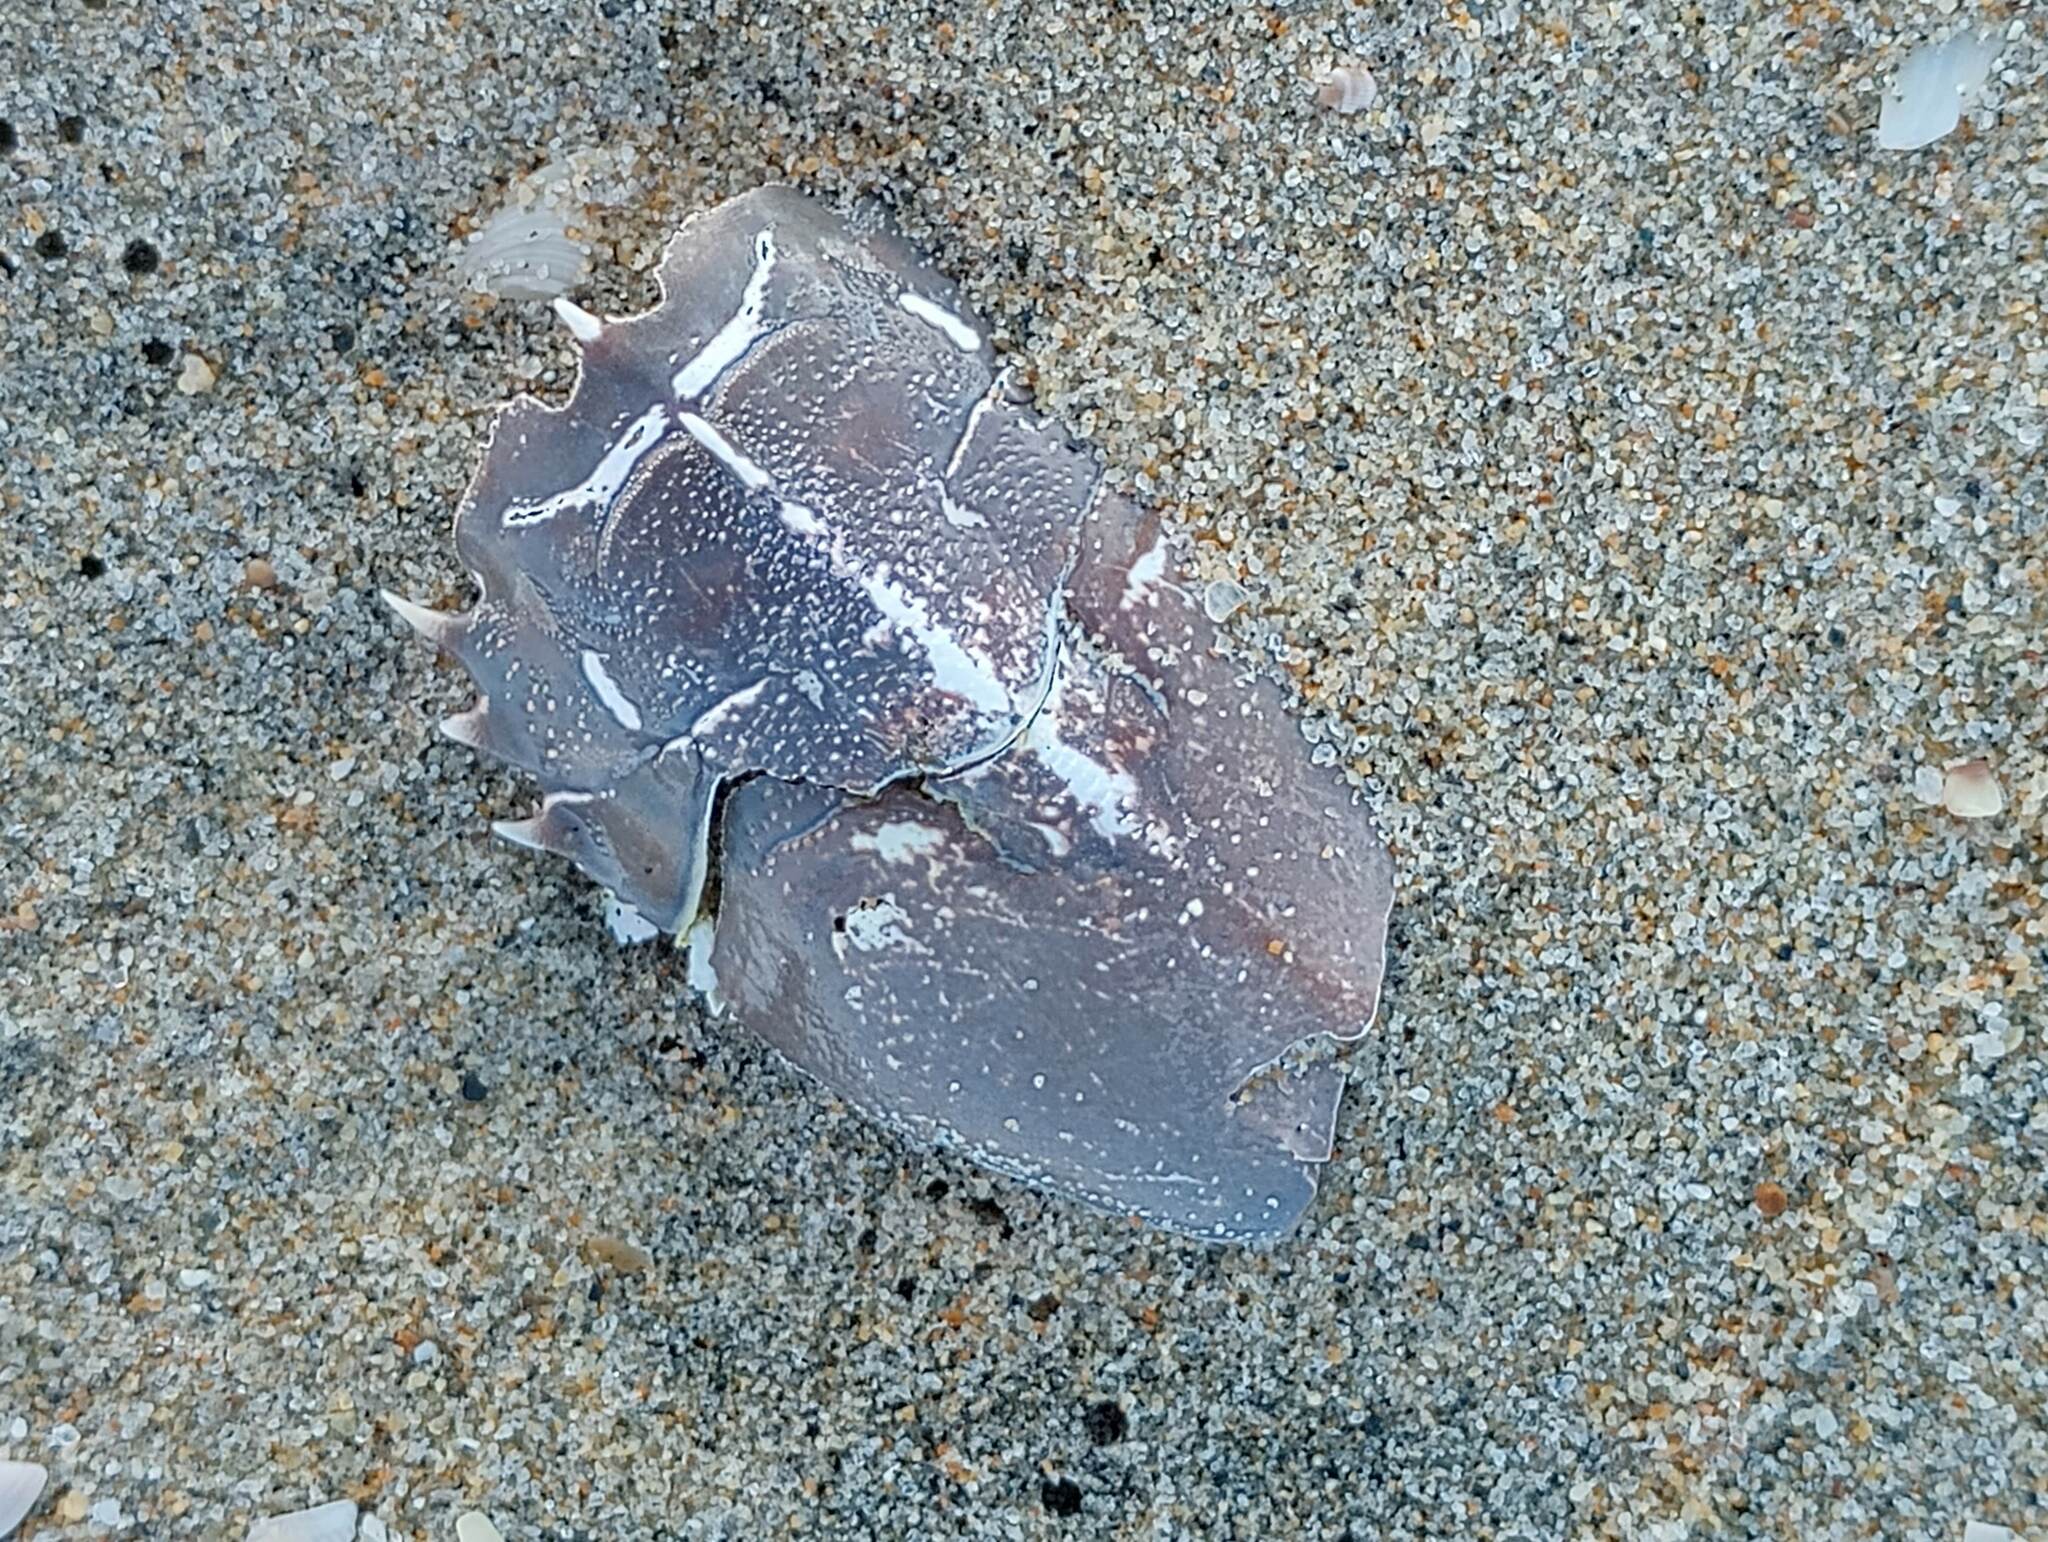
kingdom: Animalia
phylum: Arthropoda
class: Malacostraca
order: Decapoda
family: Blepharipodidae
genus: Blepharipoda
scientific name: Blepharipoda occidentalis
